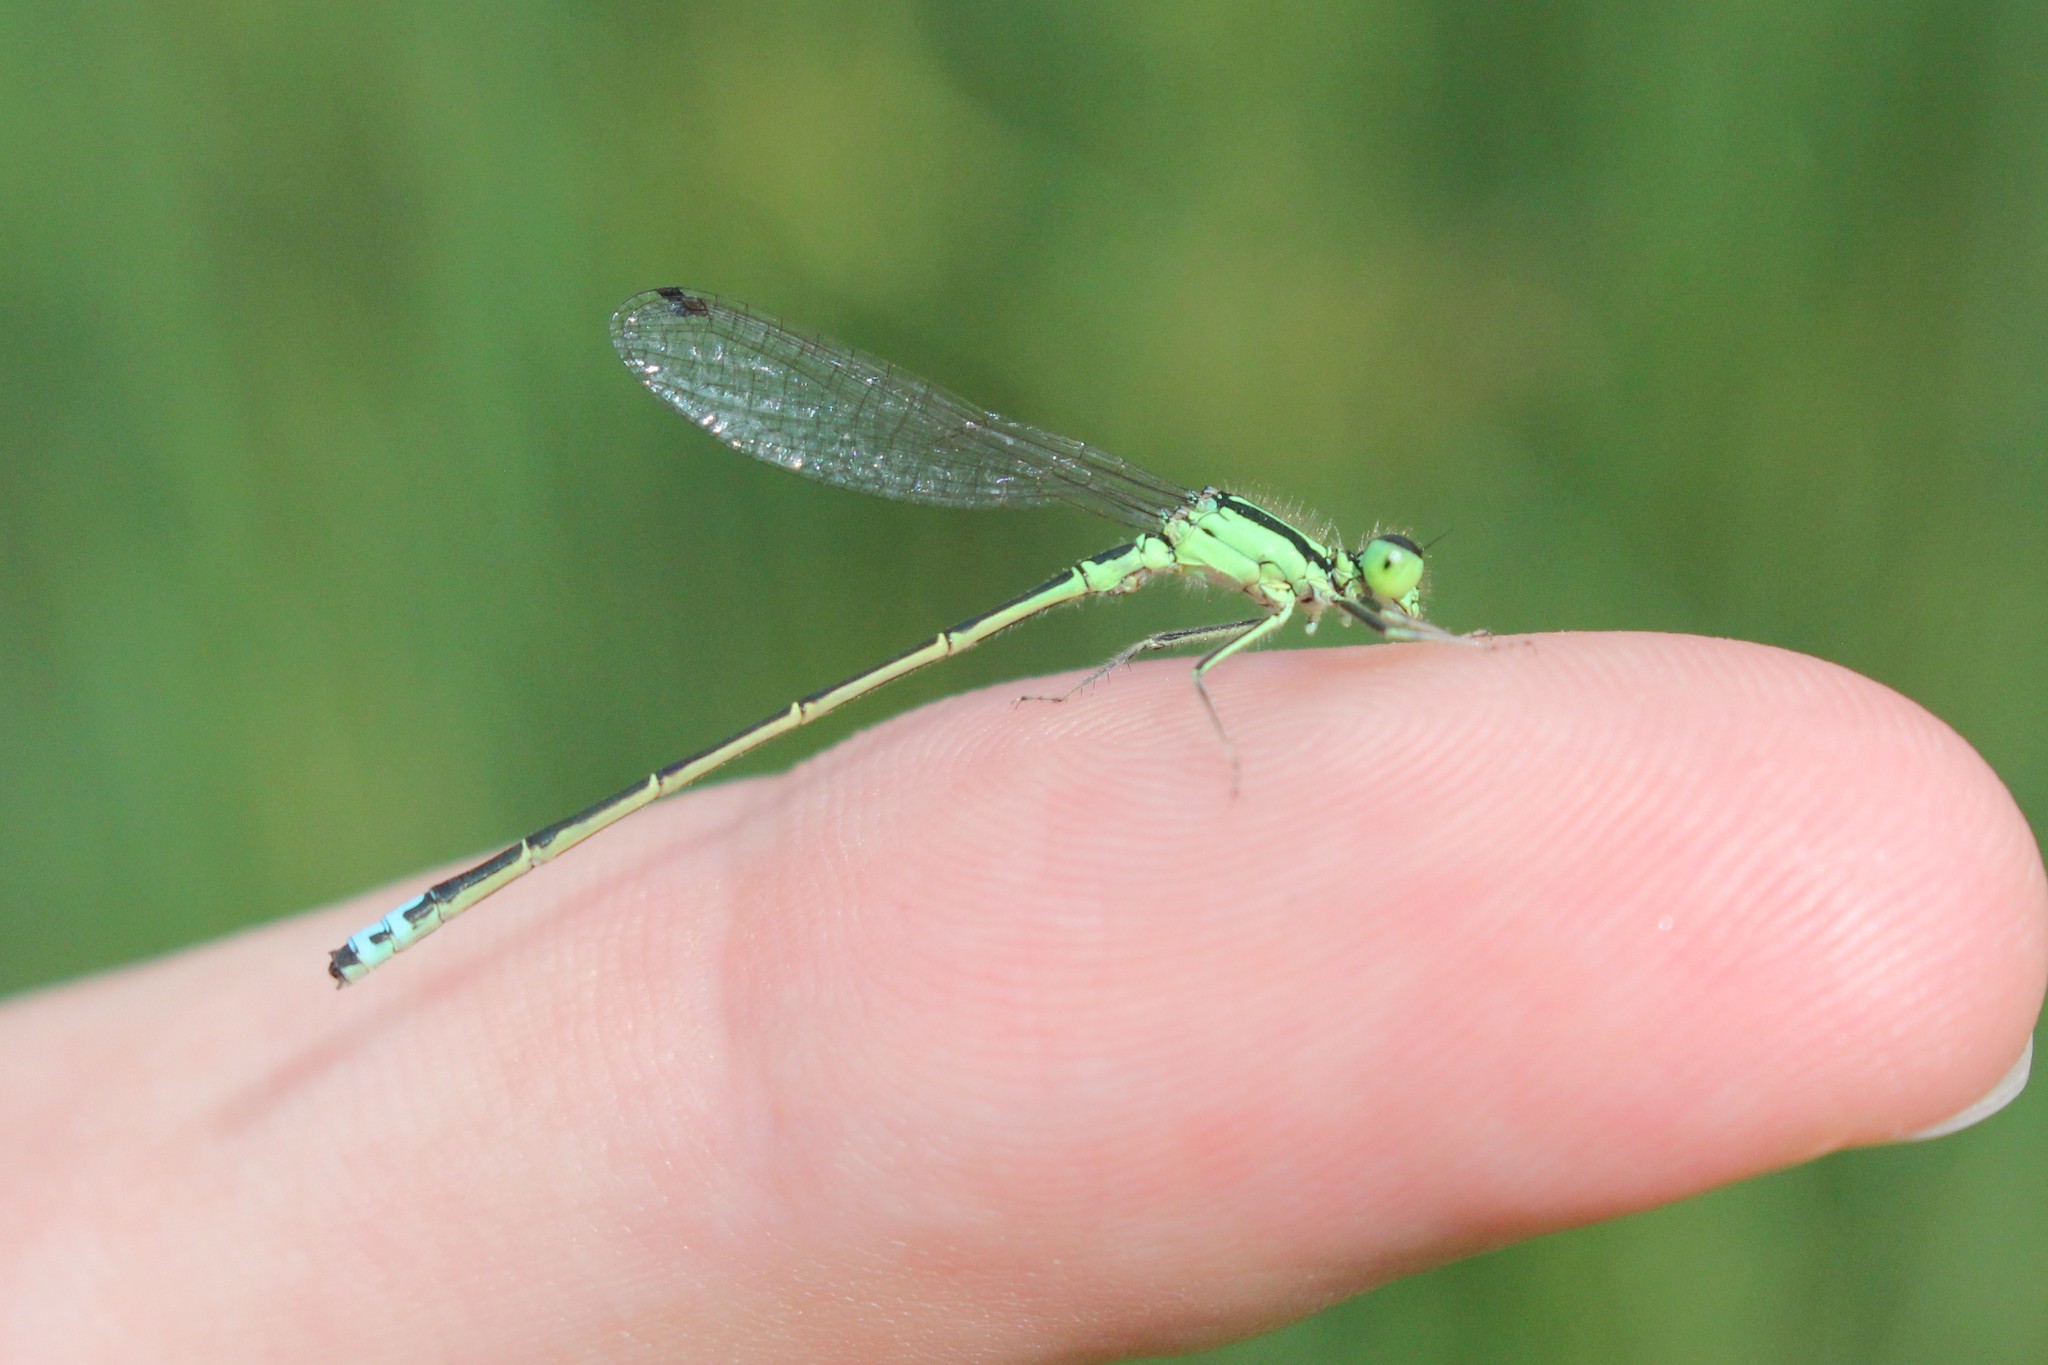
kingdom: Animalia
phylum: Arthropoda
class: Insecta
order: Odonata
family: Coenagrionidae
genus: Ischnura
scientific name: Ischnura verticalis
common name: Eastern forktail
